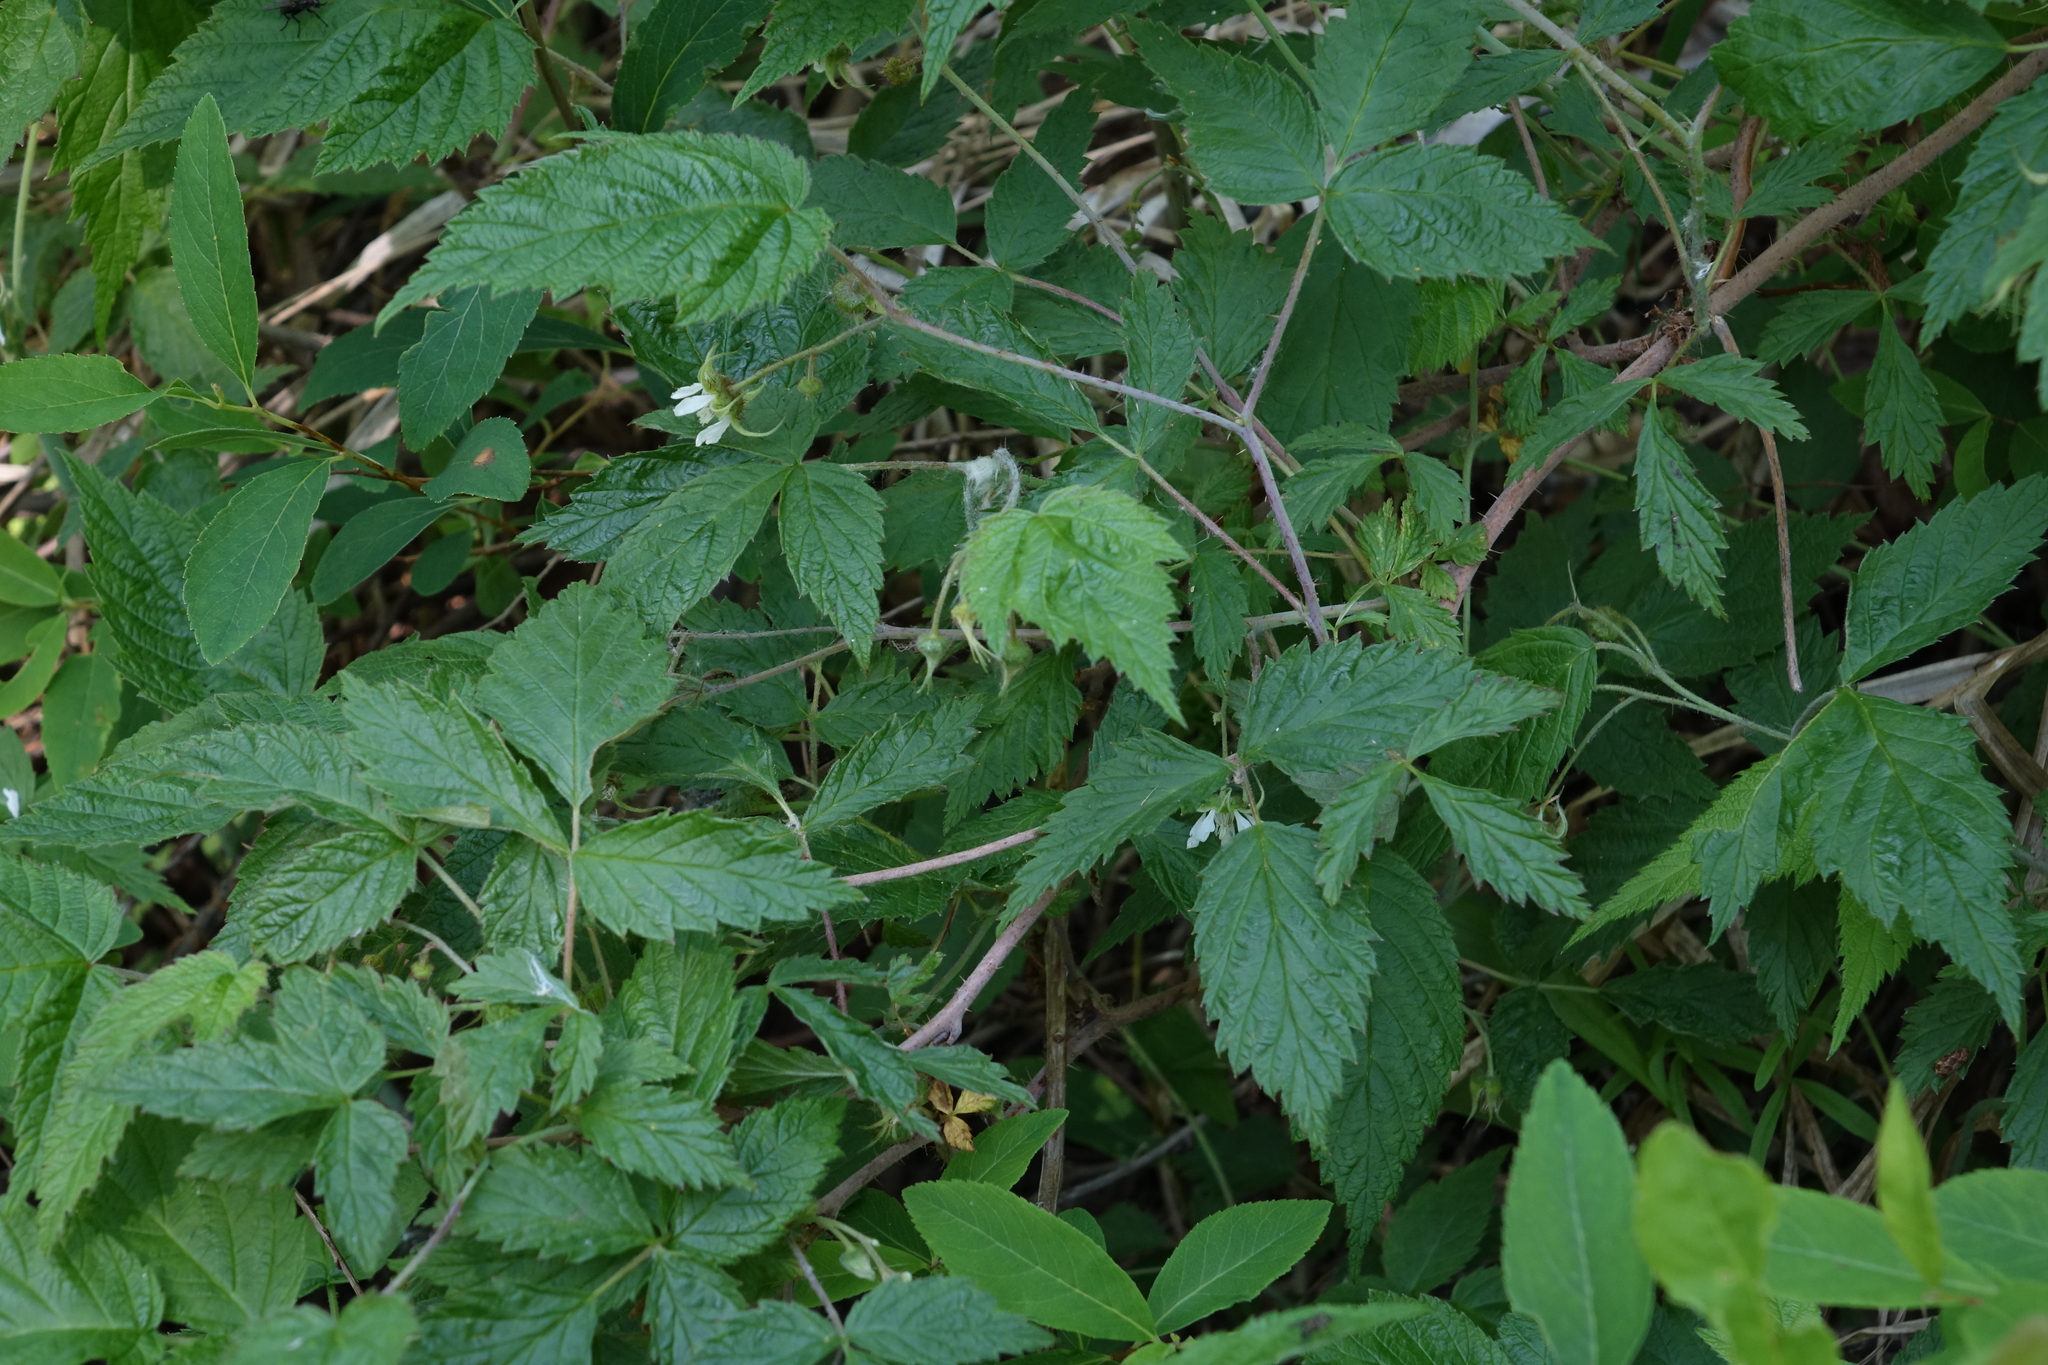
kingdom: Plantae
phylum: Tracheophyta
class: Magnoliopsida
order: Rosales
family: Rosaceae
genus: Rubus
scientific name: Rubus sachalinensis
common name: Red raspberry
